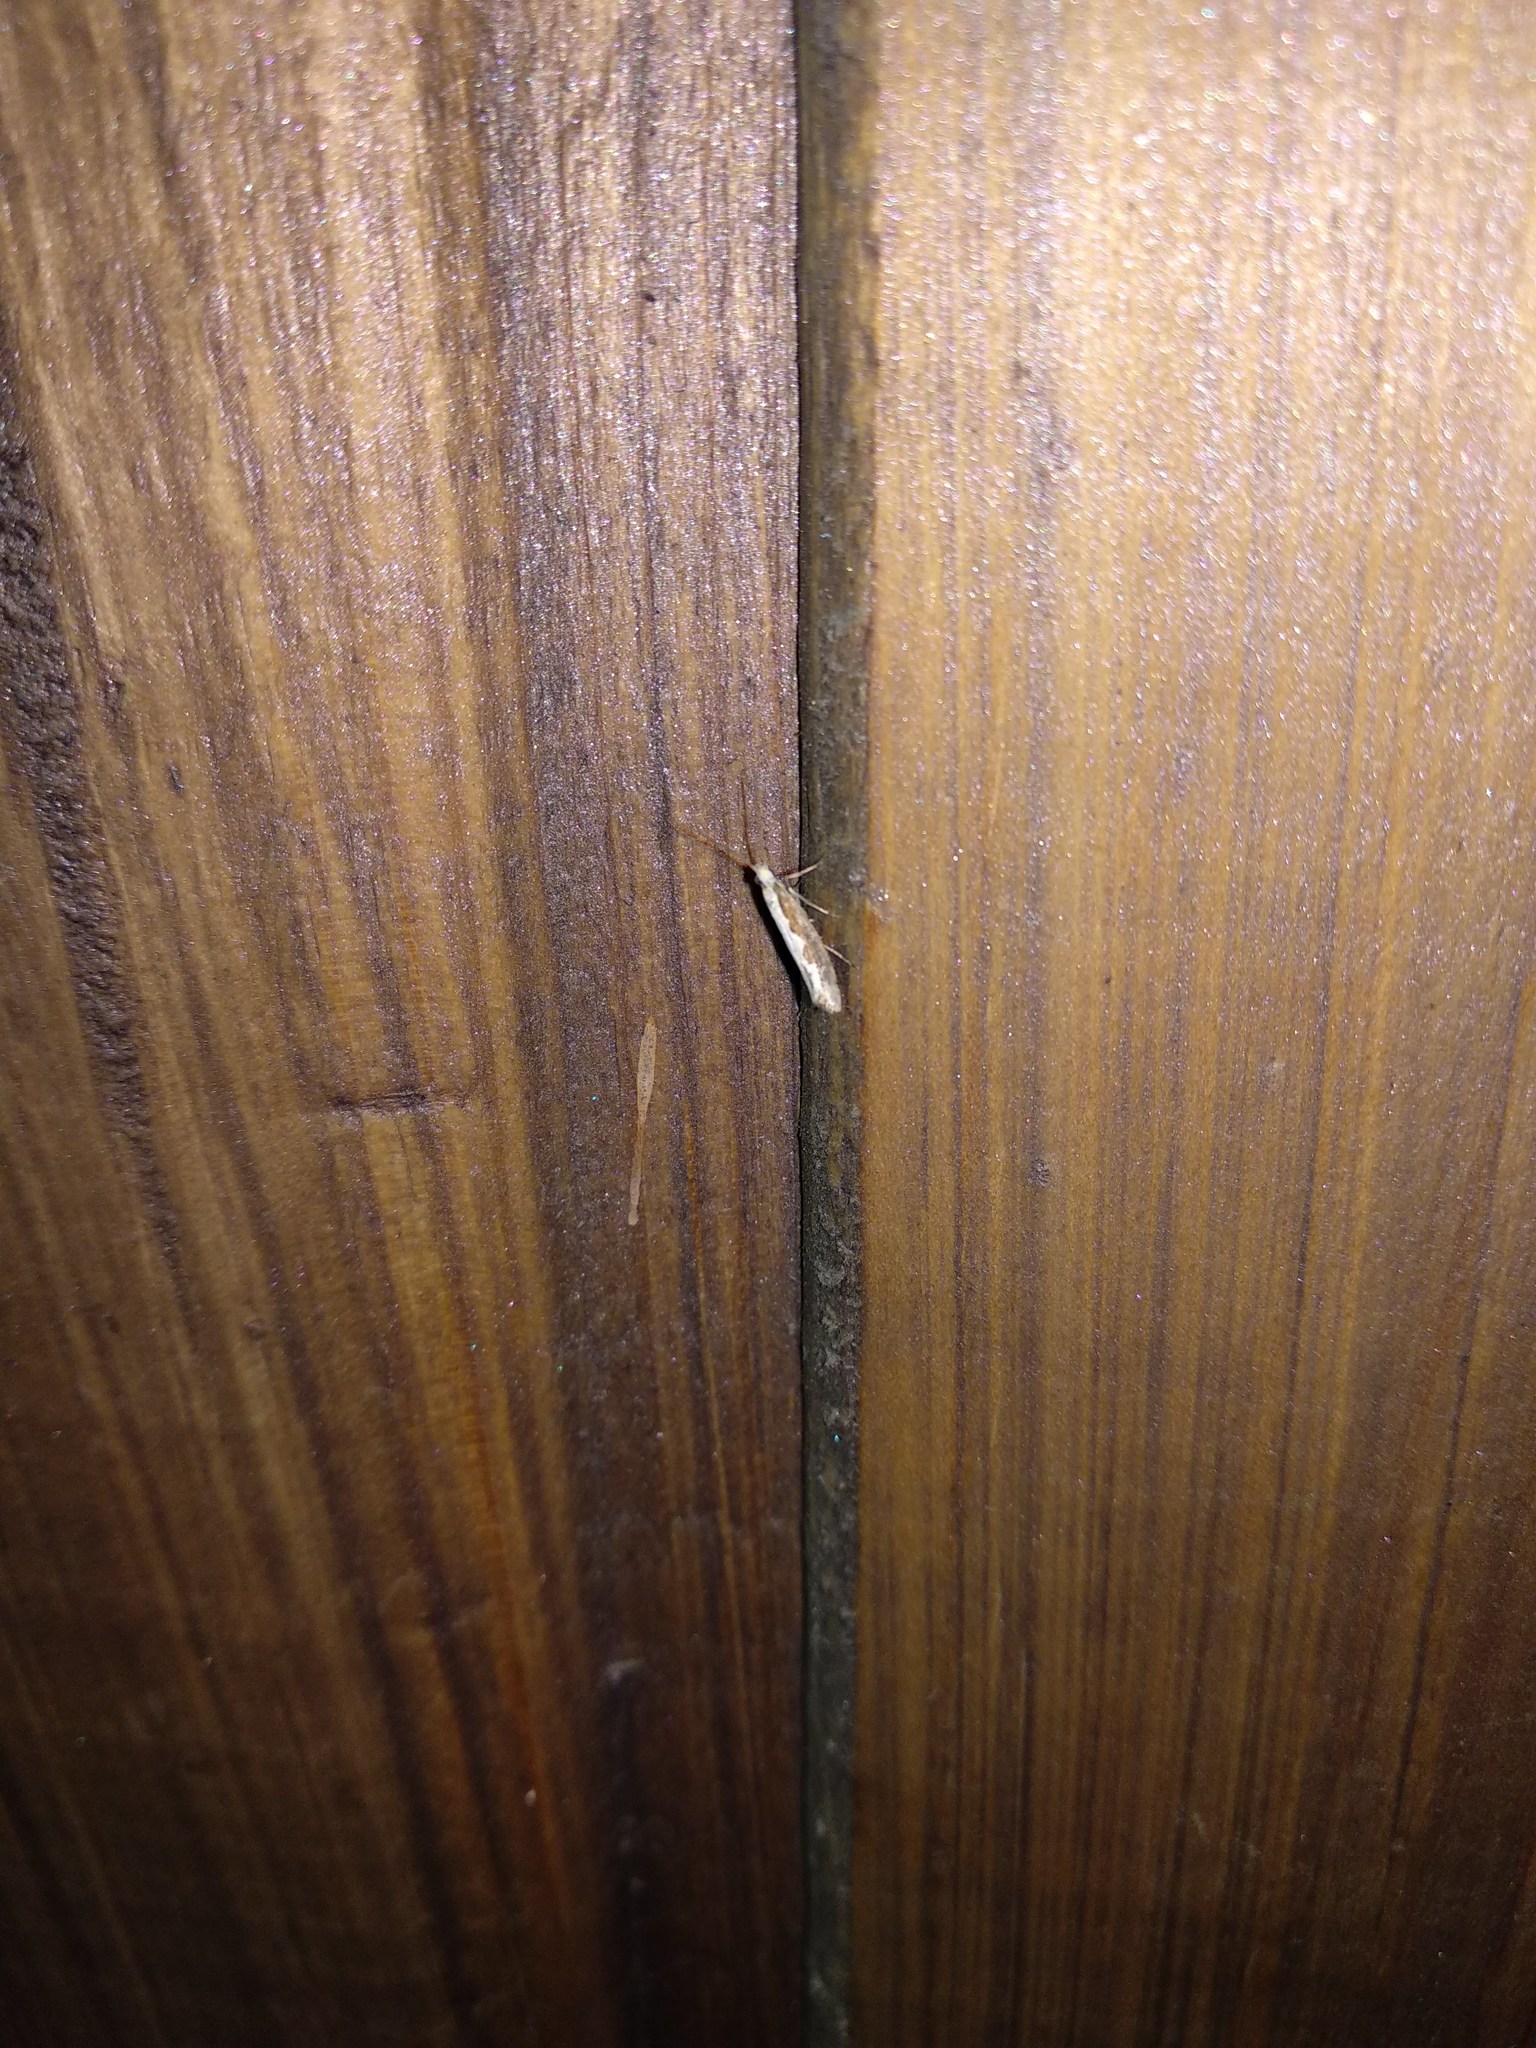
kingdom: Animalia
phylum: Arthropoda
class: Insecta
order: Lepidoptera
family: Plutellidae
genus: Plutella
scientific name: Plutella xylostella
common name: Diamond-back moth
